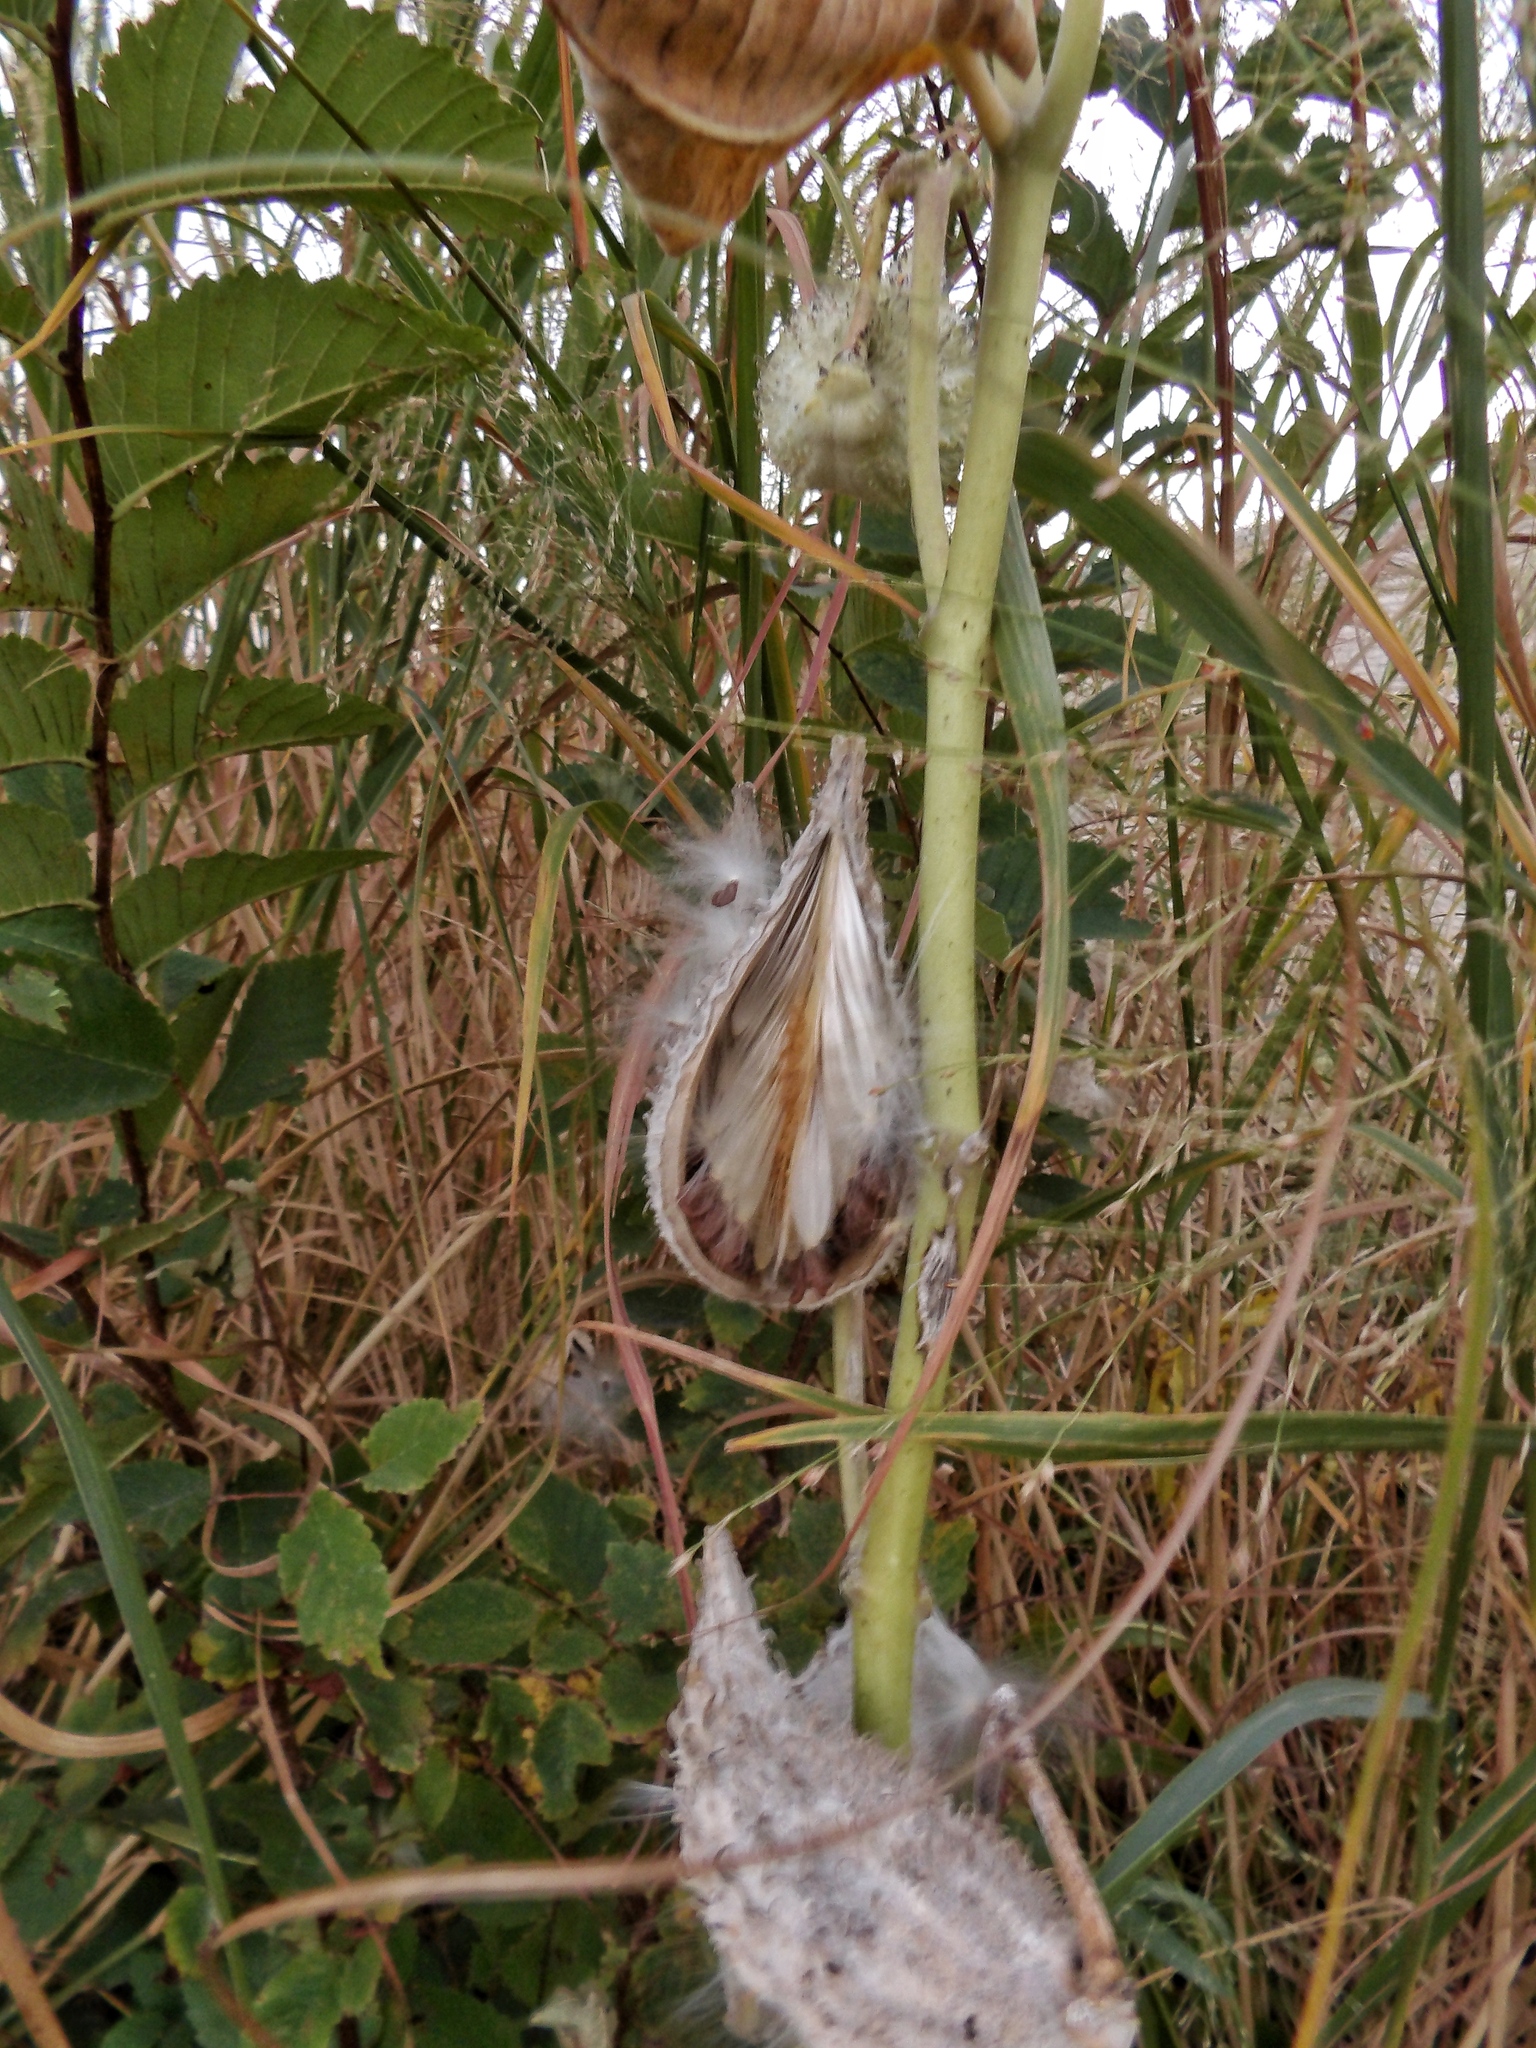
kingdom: Plantae
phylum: Tracheophyta
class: Magnoliopsida
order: Gentianales
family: Apocynaceae
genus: Asclepias
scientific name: Asclepias syriaca
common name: Common milkweed
